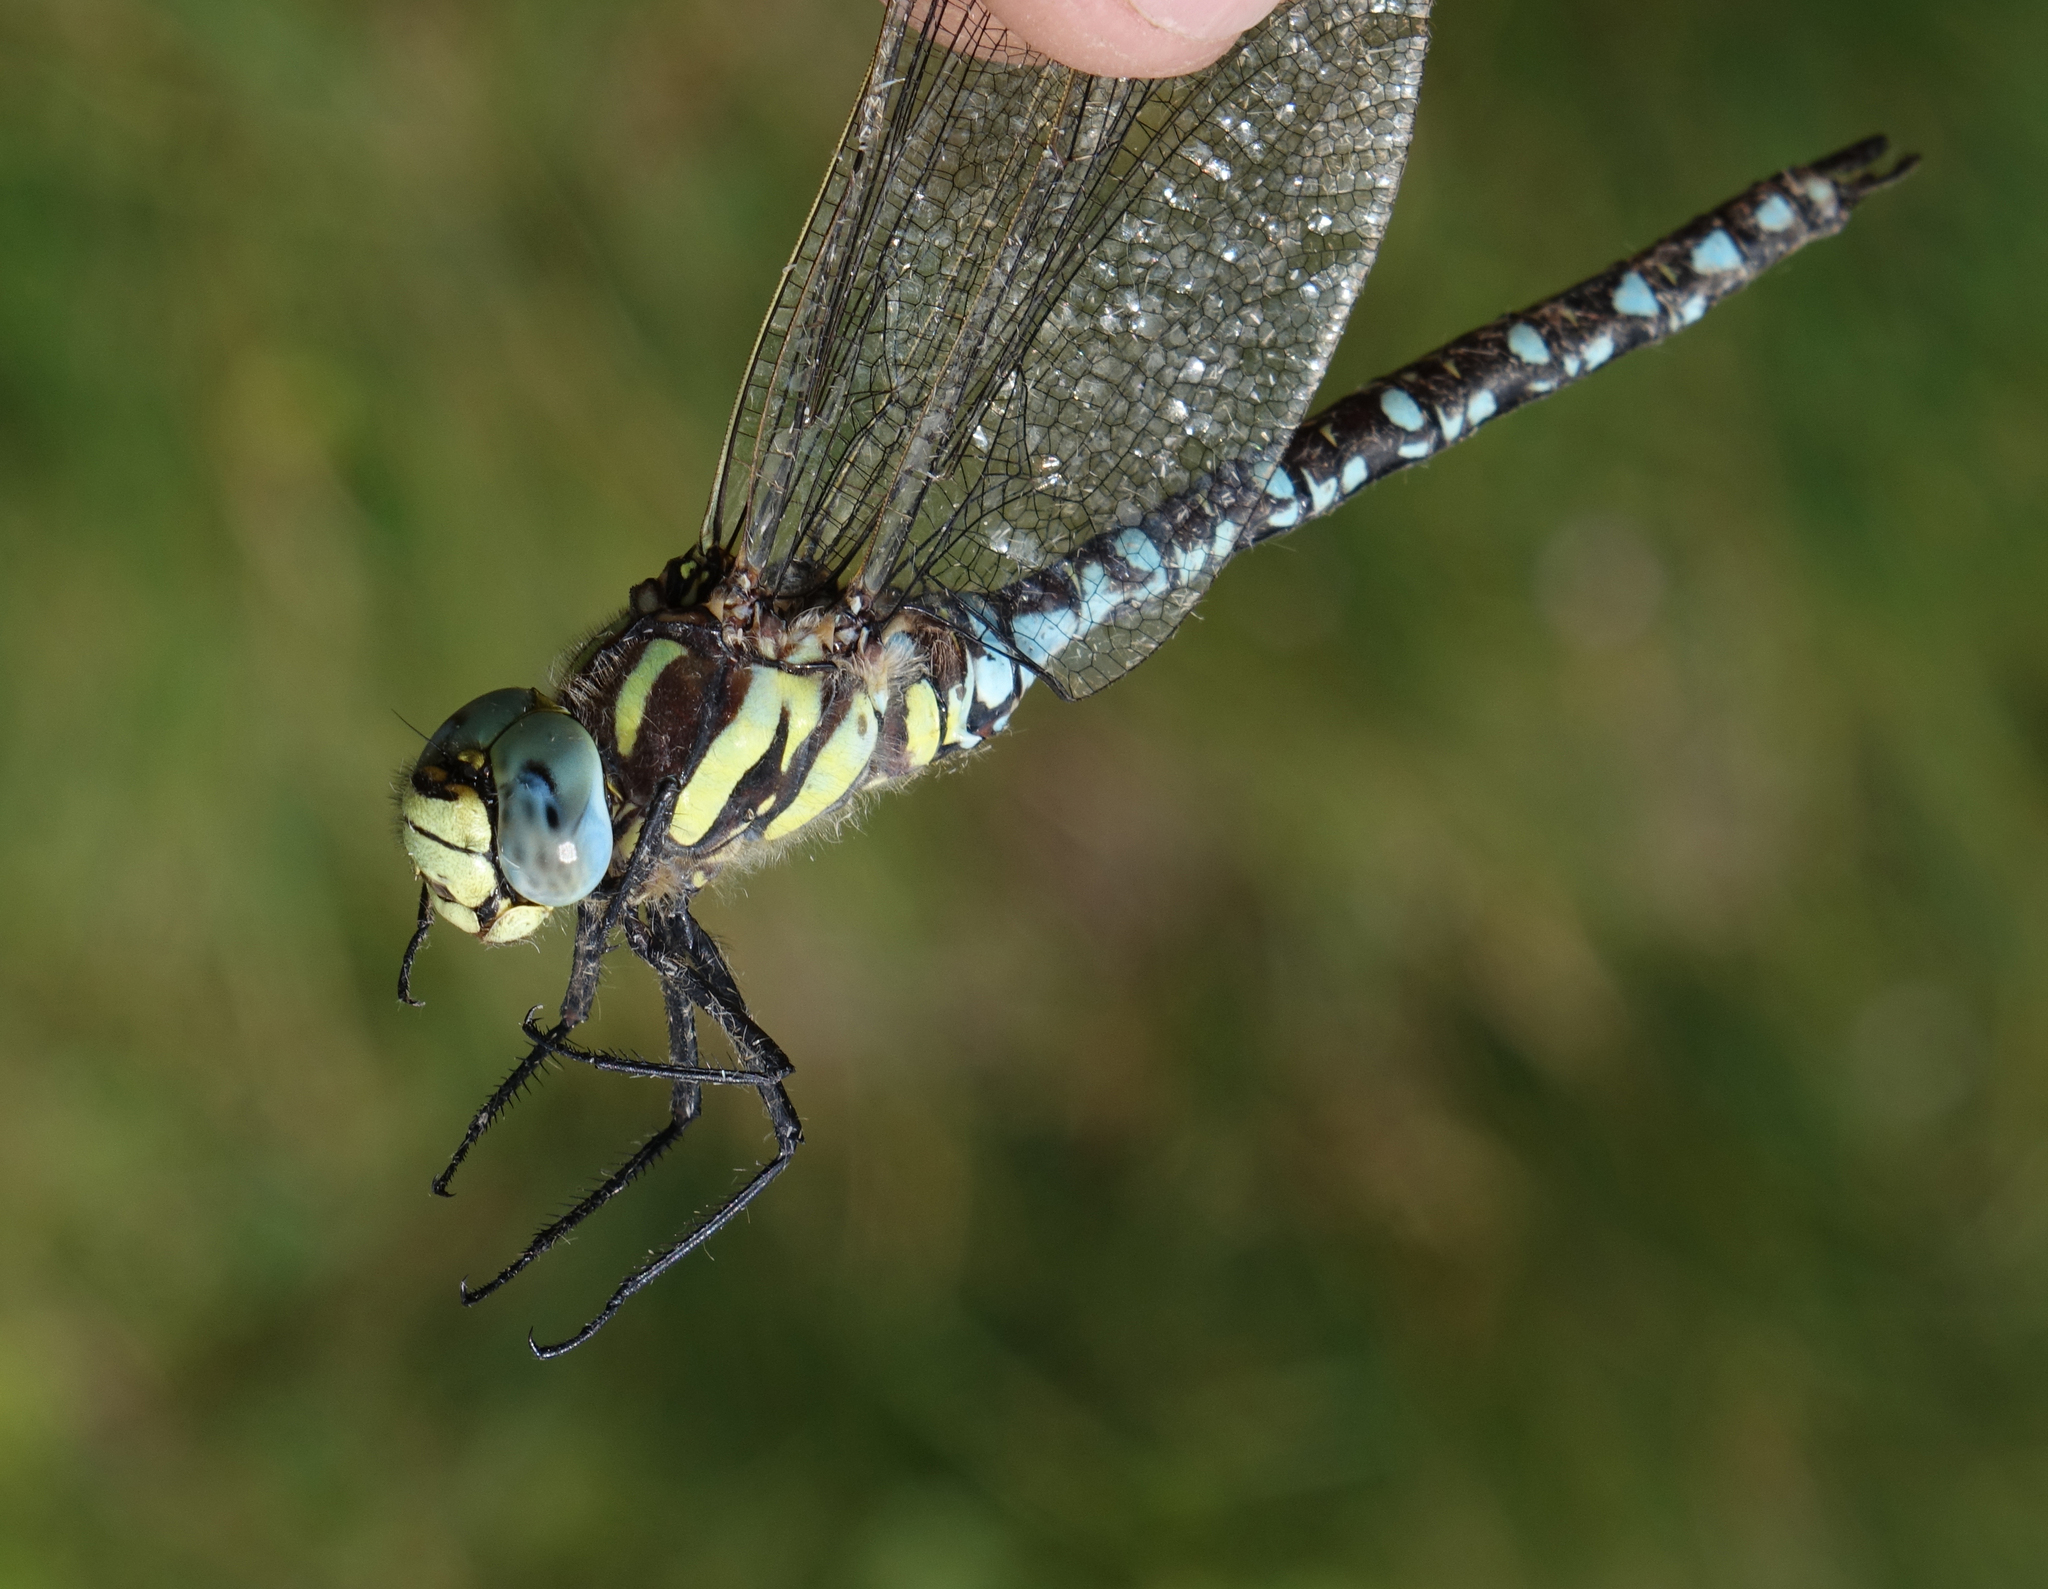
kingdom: Animalia
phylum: Arthropoda
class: Insecta
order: Odonata
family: Aeshnidae
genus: Aeshna
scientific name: Aeshna juncea
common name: Moorland hawker
